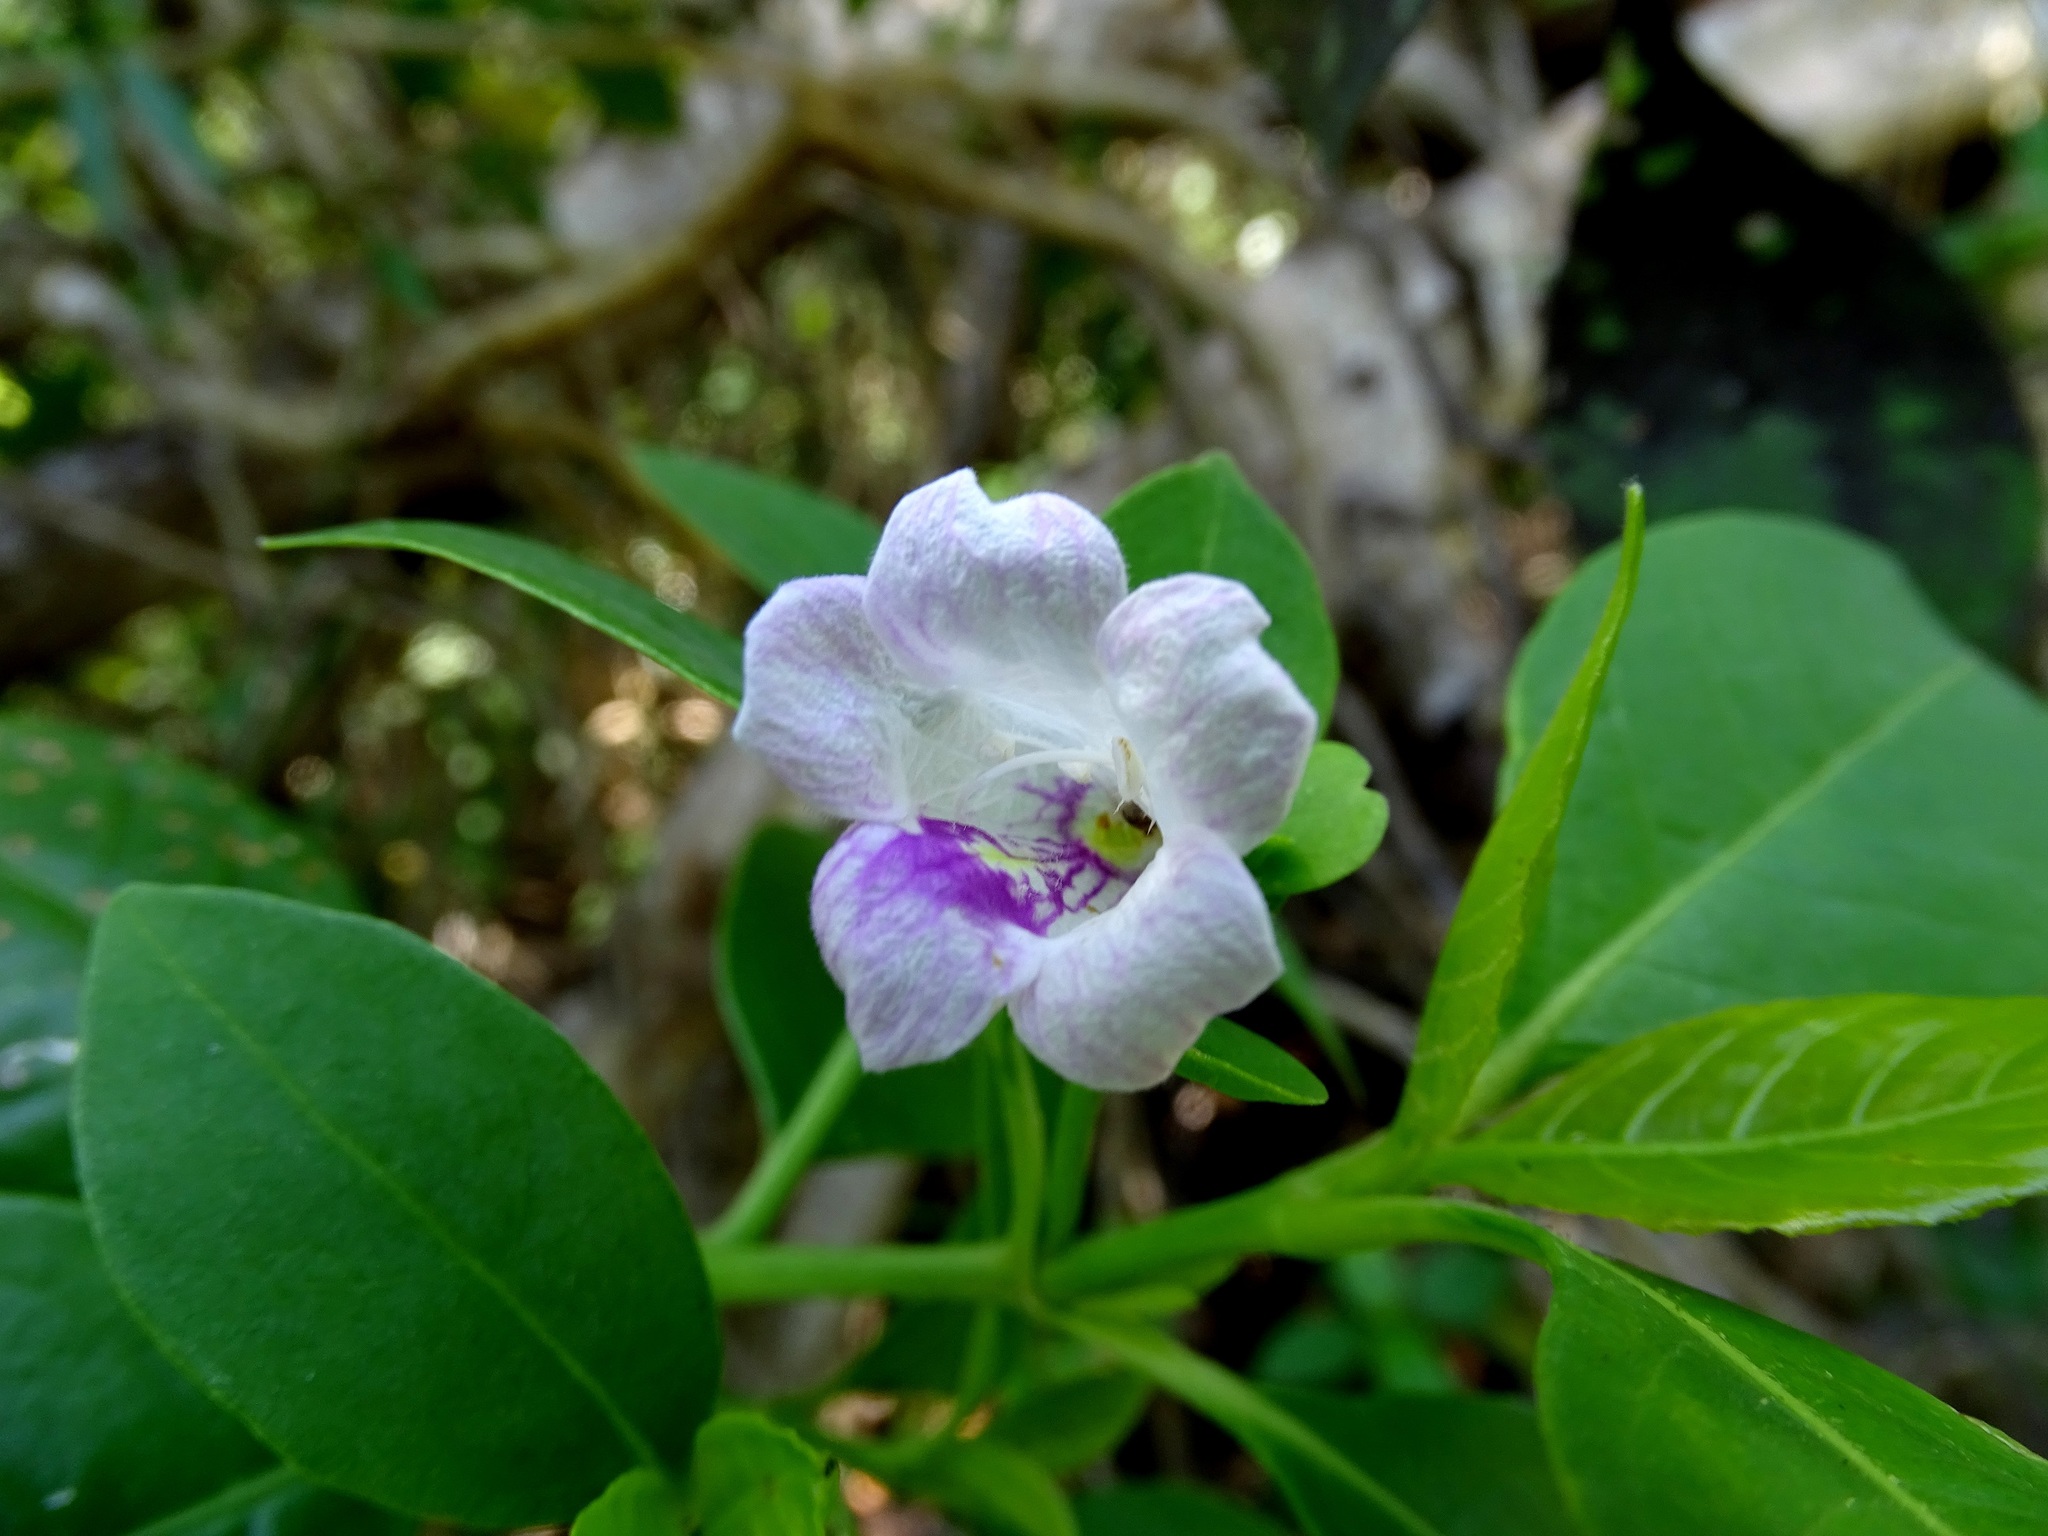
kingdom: Plantae
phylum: Tracheophyta
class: Magnoliopsida
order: Lamiales
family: Acanthaceae
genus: Bravaisia
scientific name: Bravaisia berlandieriana
